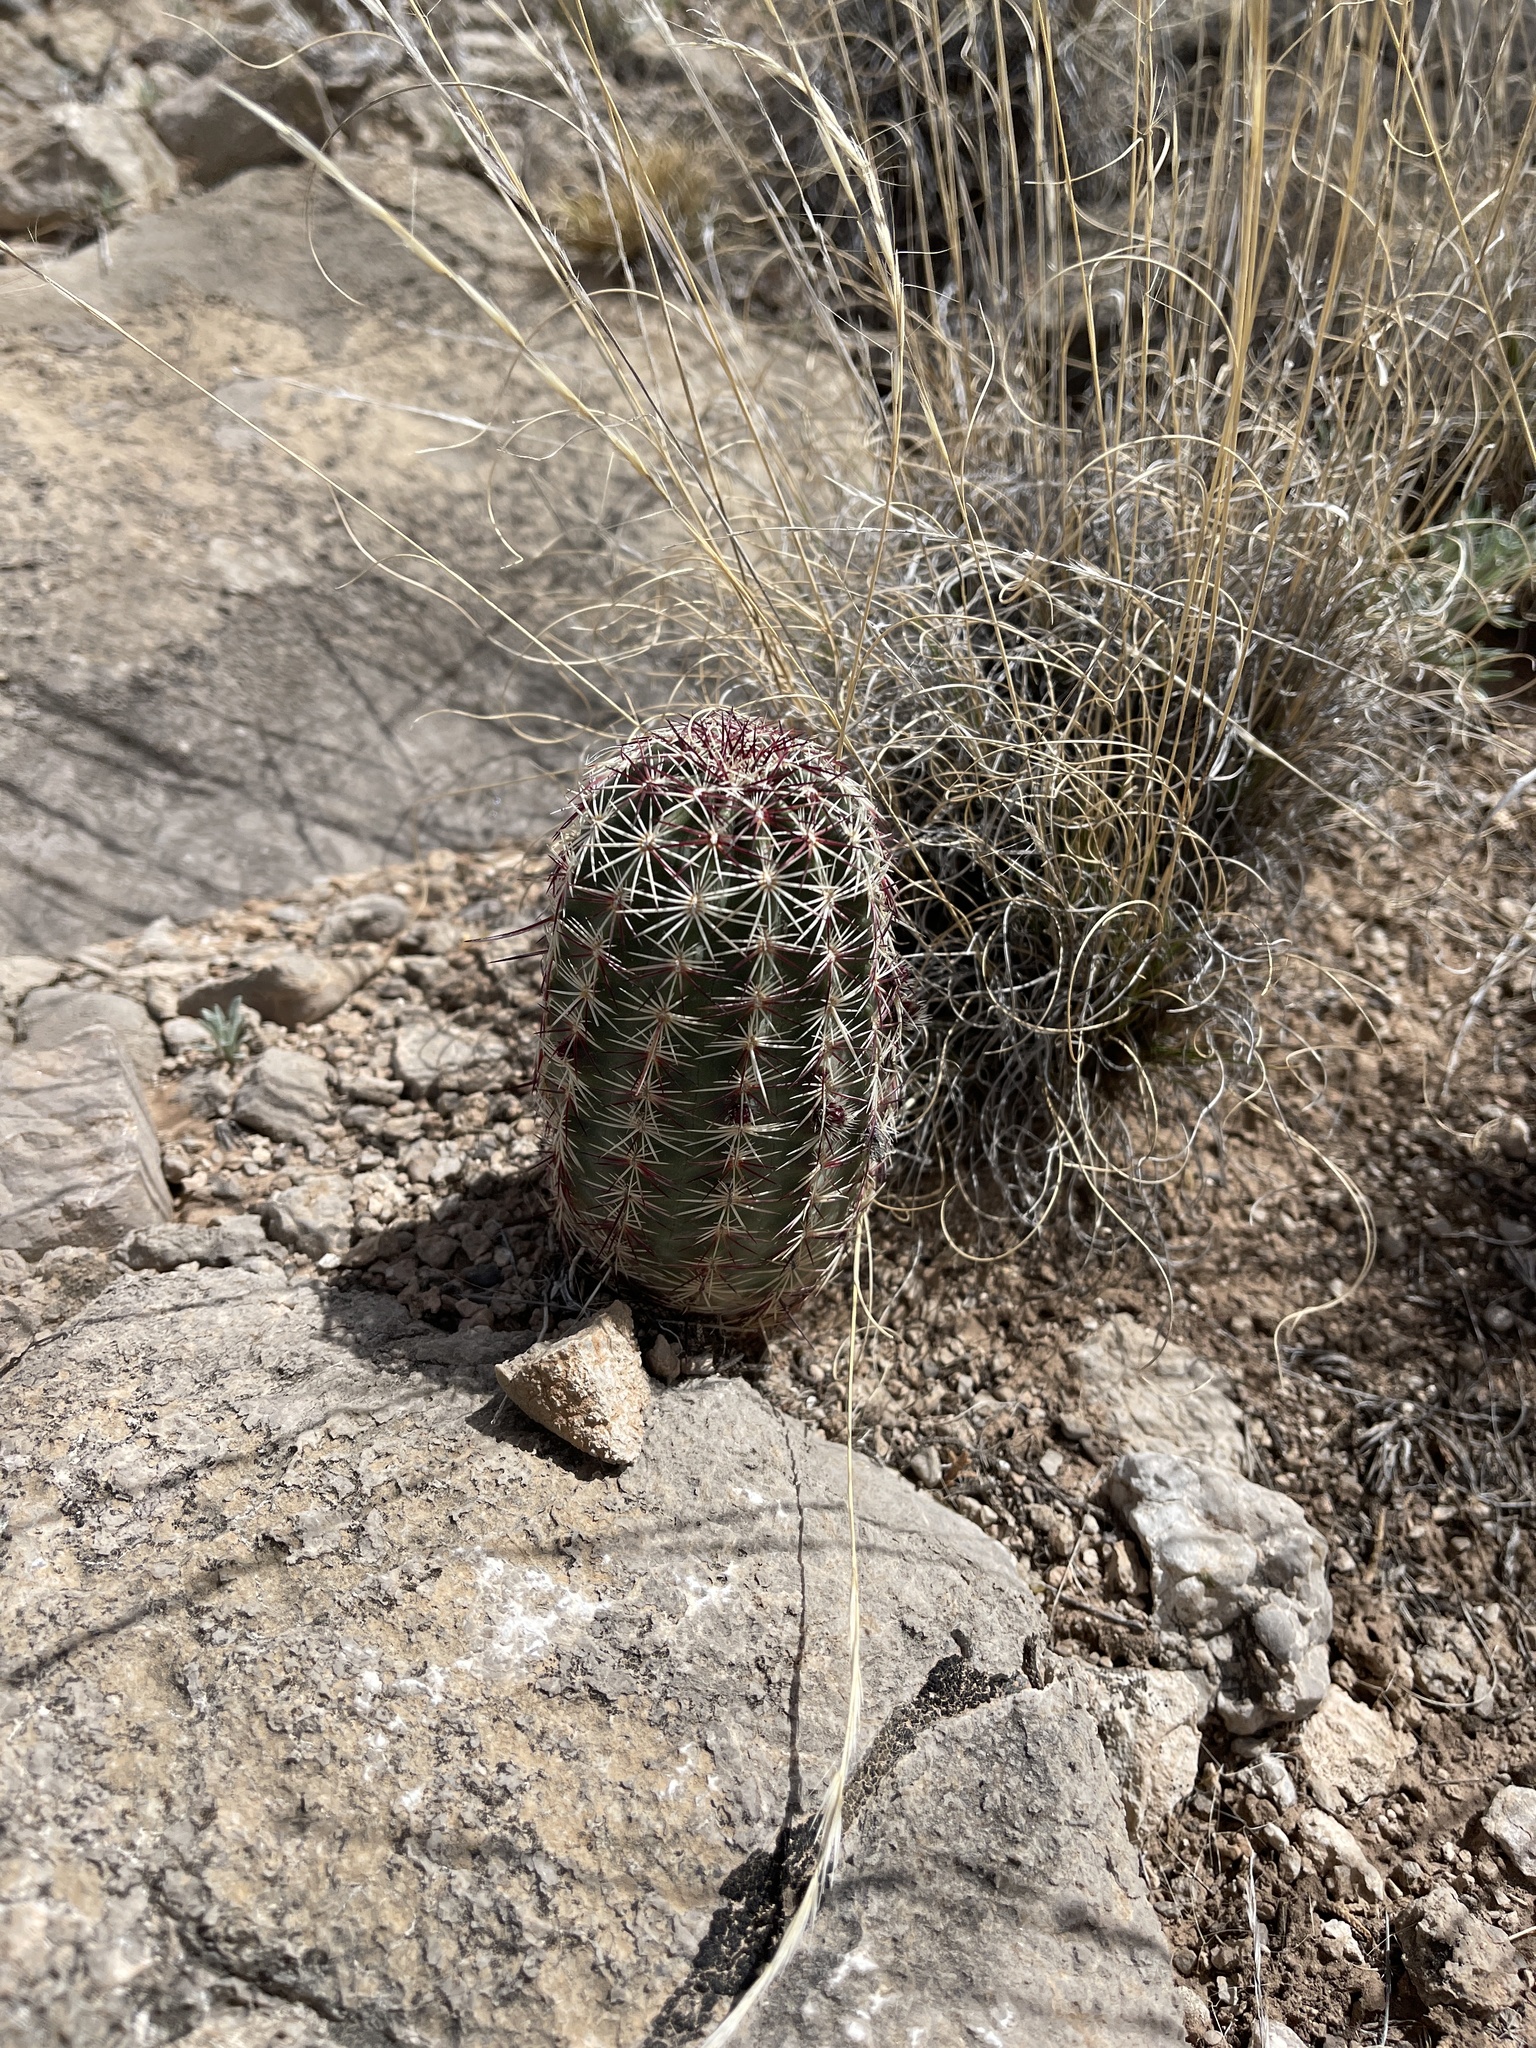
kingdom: Plantae
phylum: Tracheophyta
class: Magnoliopsida
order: Caryophyllales
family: Cactaceae
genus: Echinocereus
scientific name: Echinocereus viridiflorus
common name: Nylon hedgehog cactus
